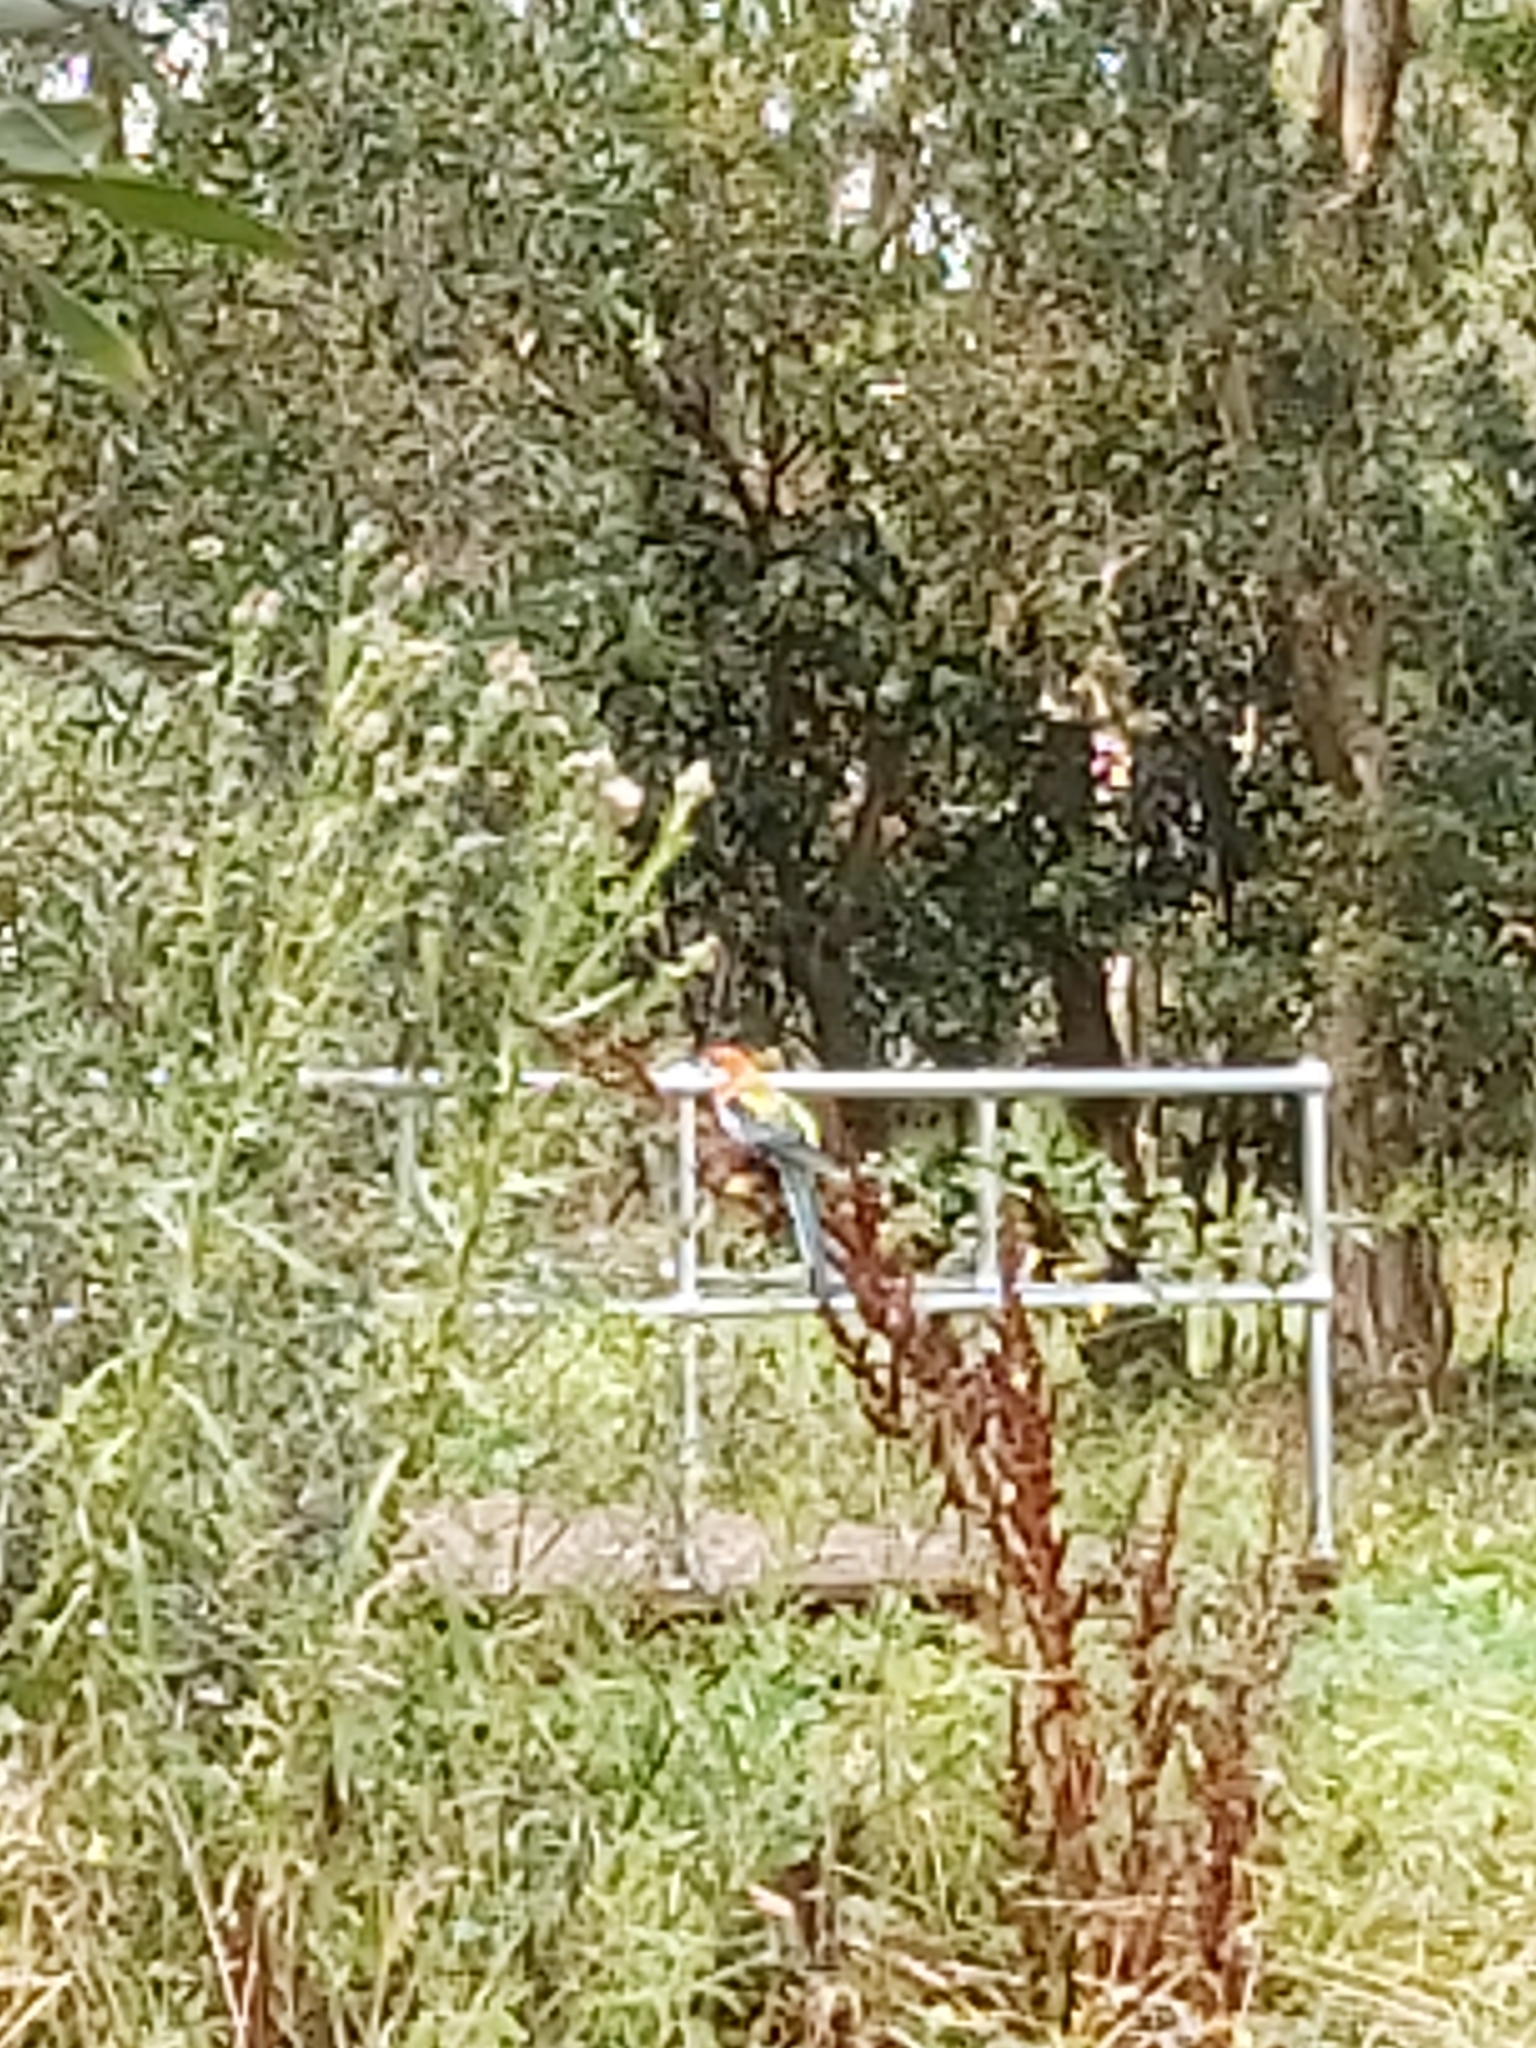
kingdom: Animalia
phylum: Chordata
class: Aves
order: Psittaciformes
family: Psittacidae
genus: Platycercus
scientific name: Platycercus eximius
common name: Eastern rosella
